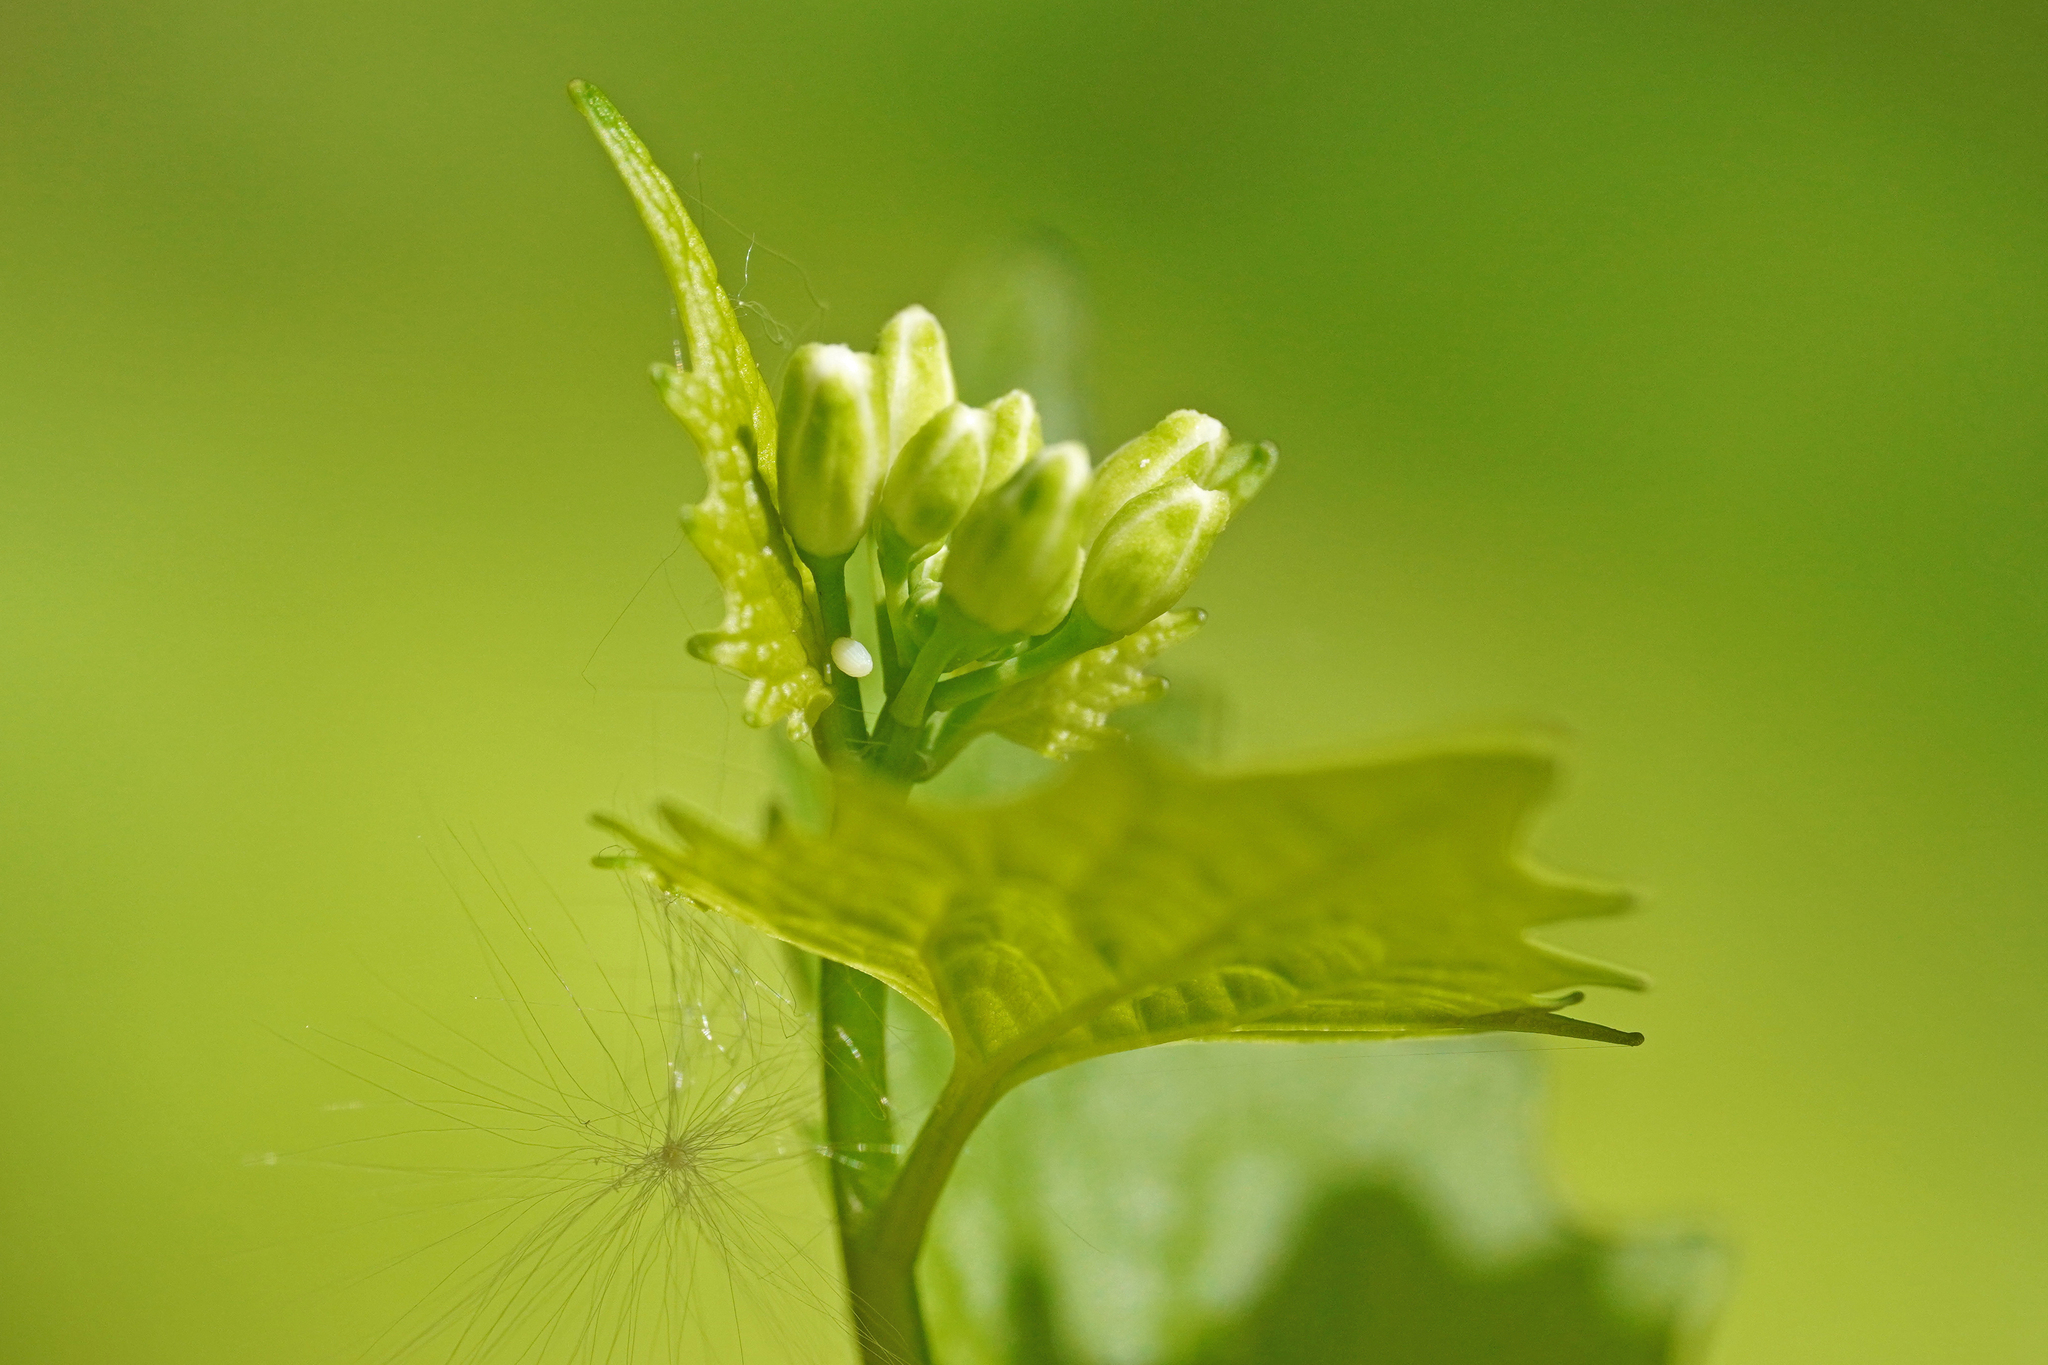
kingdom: Animalia
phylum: Arthropoda
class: Insecta
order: Lepidoptera
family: Pieridae
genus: Anthocharis
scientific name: Anthocharis cardamines
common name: Orange-tip
